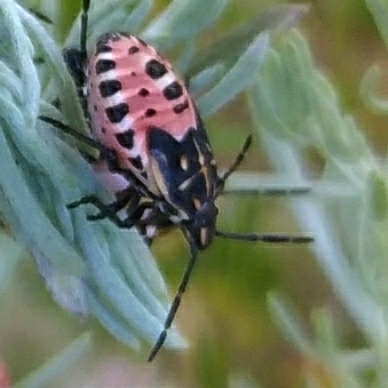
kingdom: Animalia
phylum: Arthropoda
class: Insecta
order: Hemiptera
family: Miridae
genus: Orthops
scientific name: Orthops kalmii
